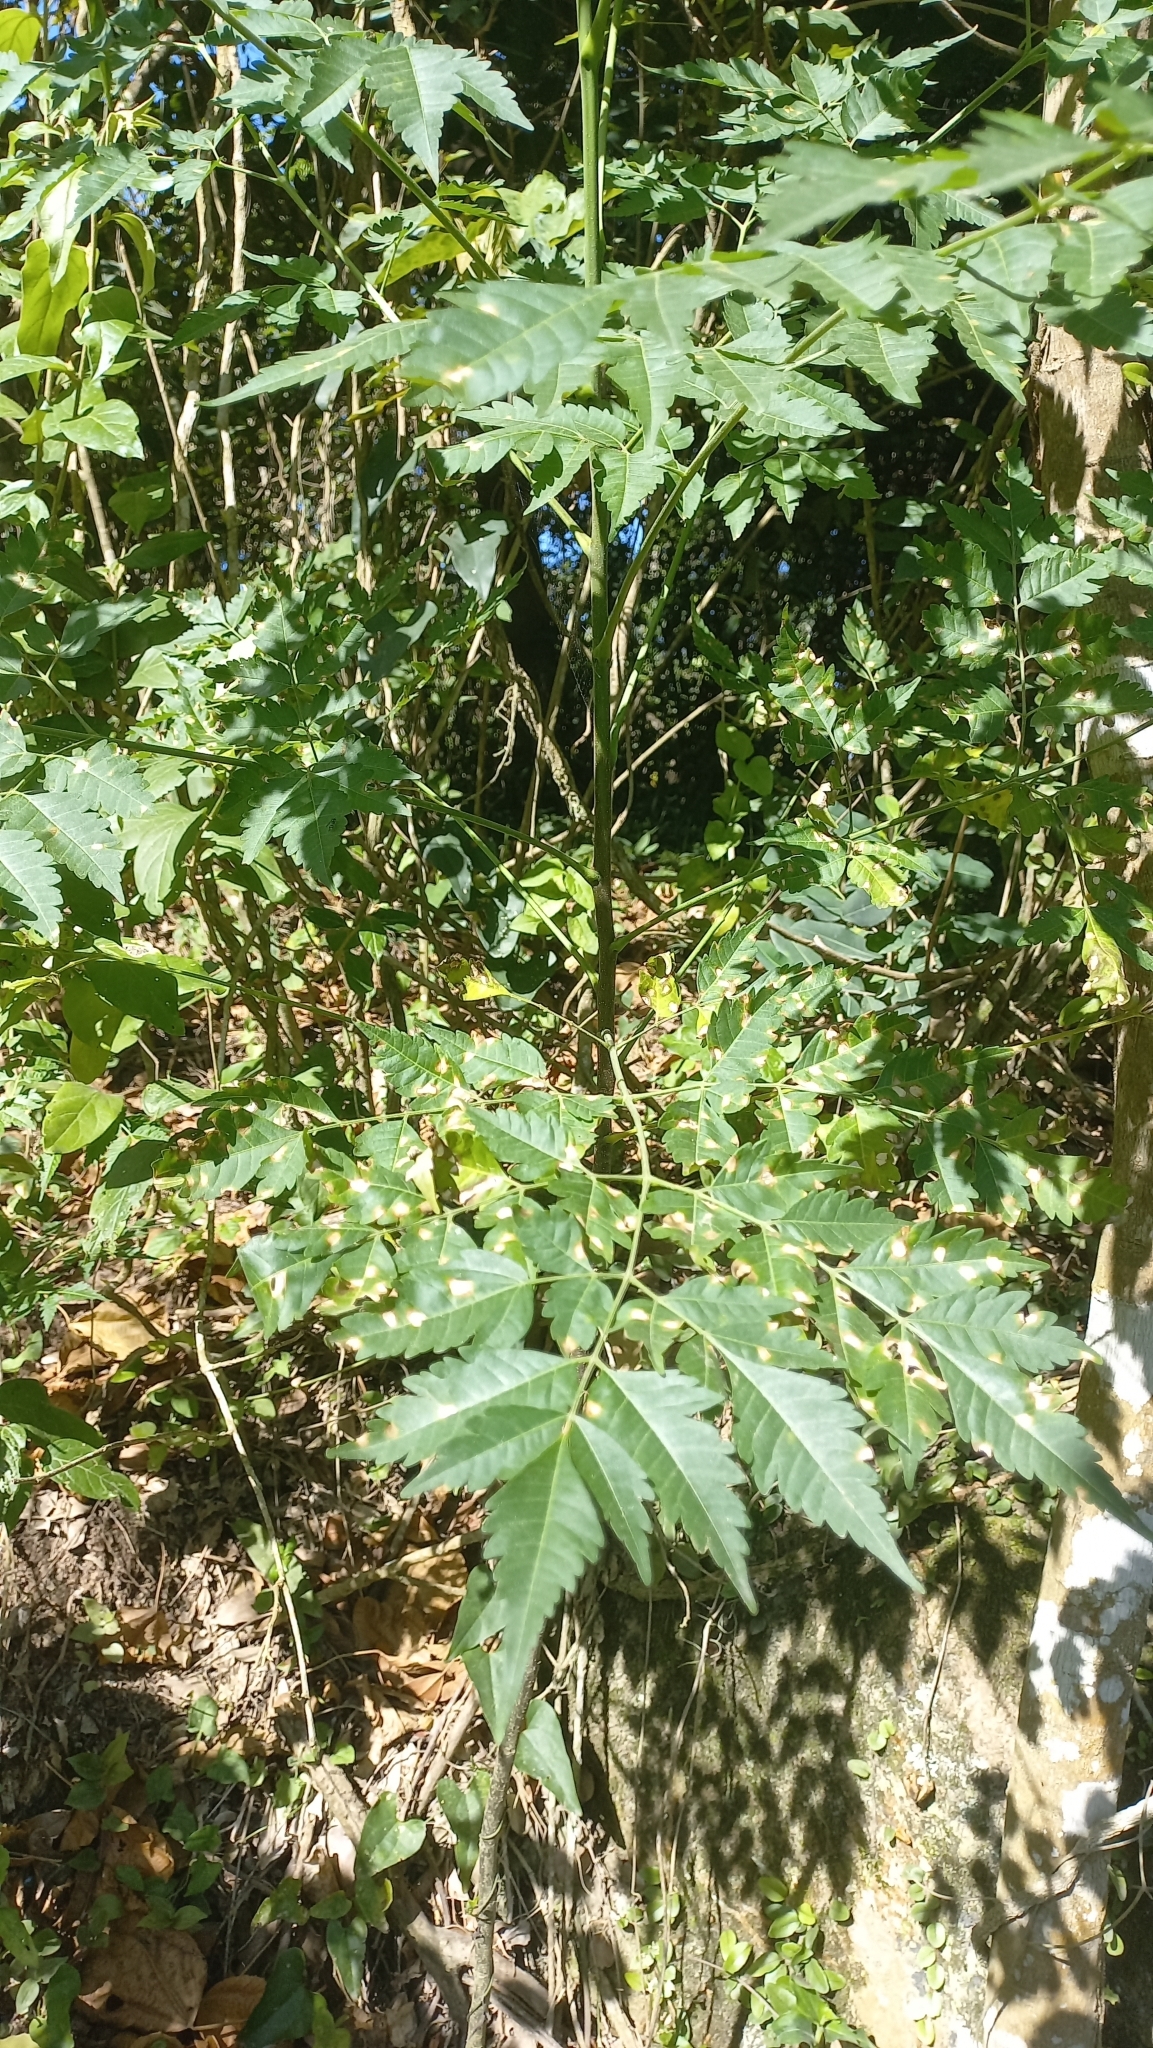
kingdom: Plantae
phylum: Tracheophyta
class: Magnoliopsida
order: Sapindales
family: Meliaceae
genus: Melia
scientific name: Melia azedarach
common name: Chinaberrytree
